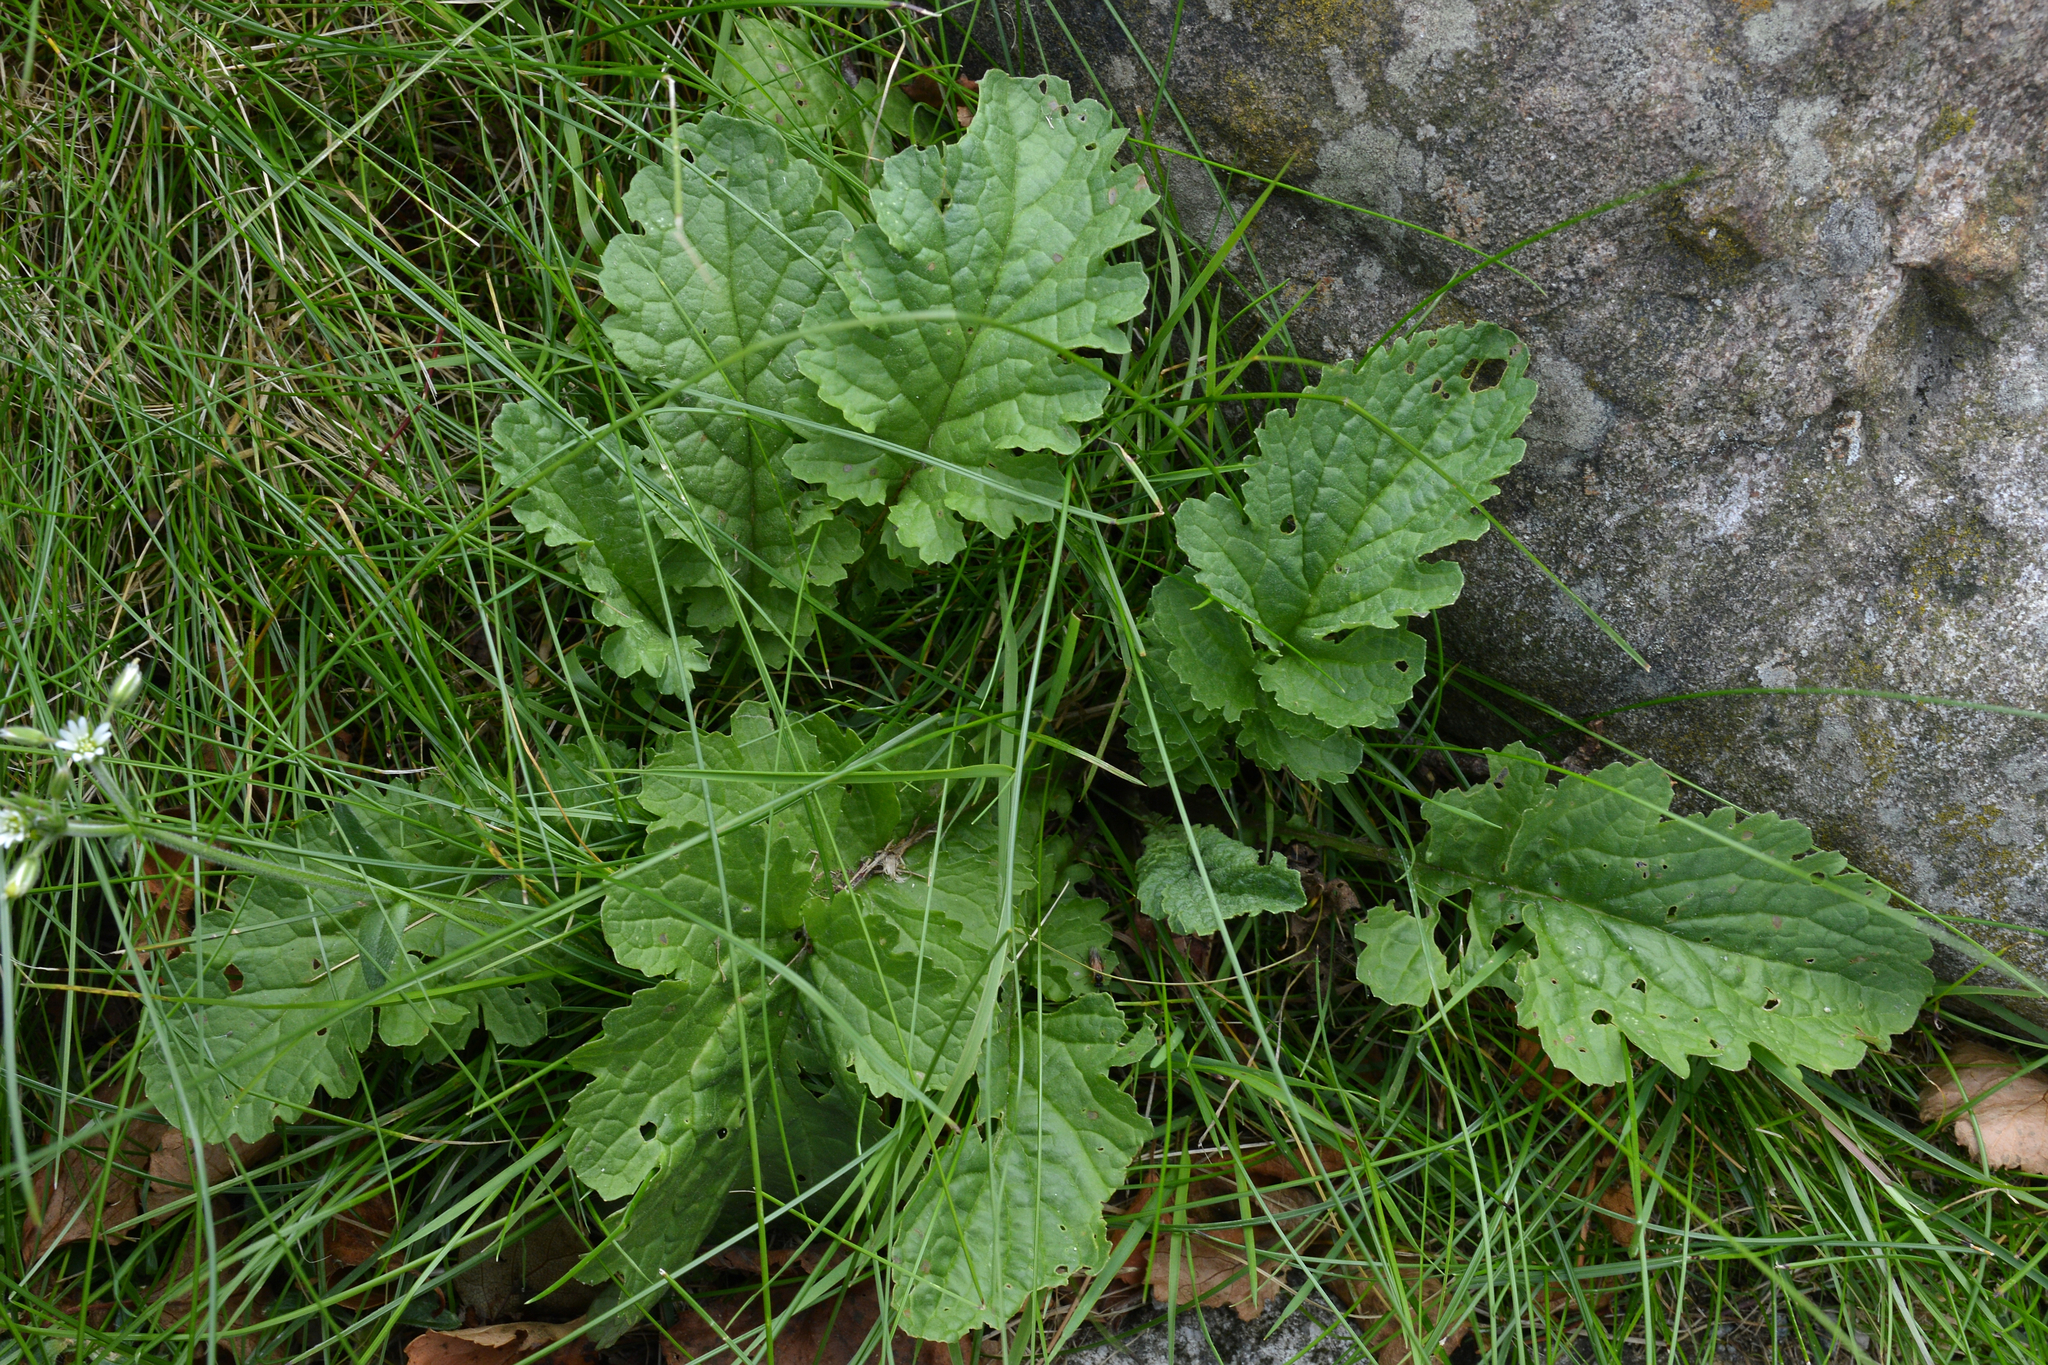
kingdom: Plantae
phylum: Tracheophyta
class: Magnoliopsida
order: Asterales
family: Asteraceae
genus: Jacobaea
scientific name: Jacobaea vulgaris
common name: Stinking willie
